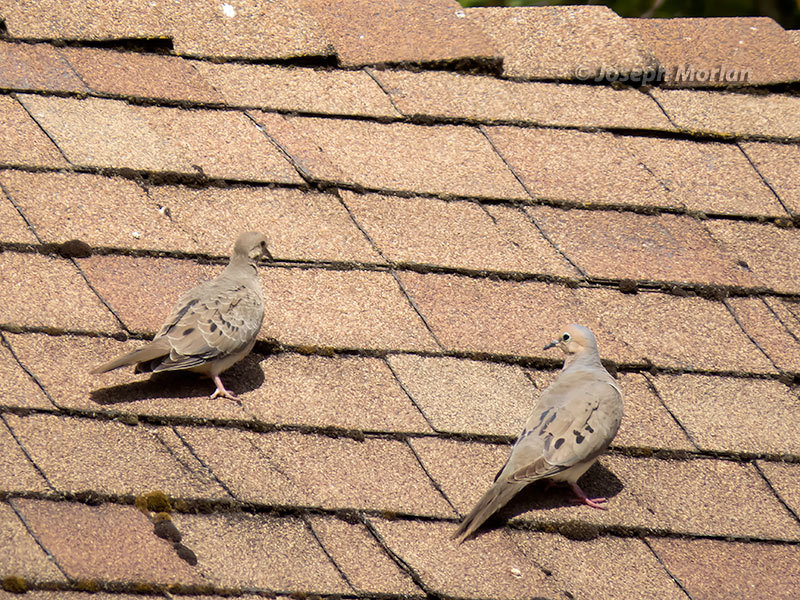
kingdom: Animalia
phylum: Chordata
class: Aves
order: Columbiformes
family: Columbidae
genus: Zenaida
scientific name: Zenaida macroura
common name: Mourning dove
